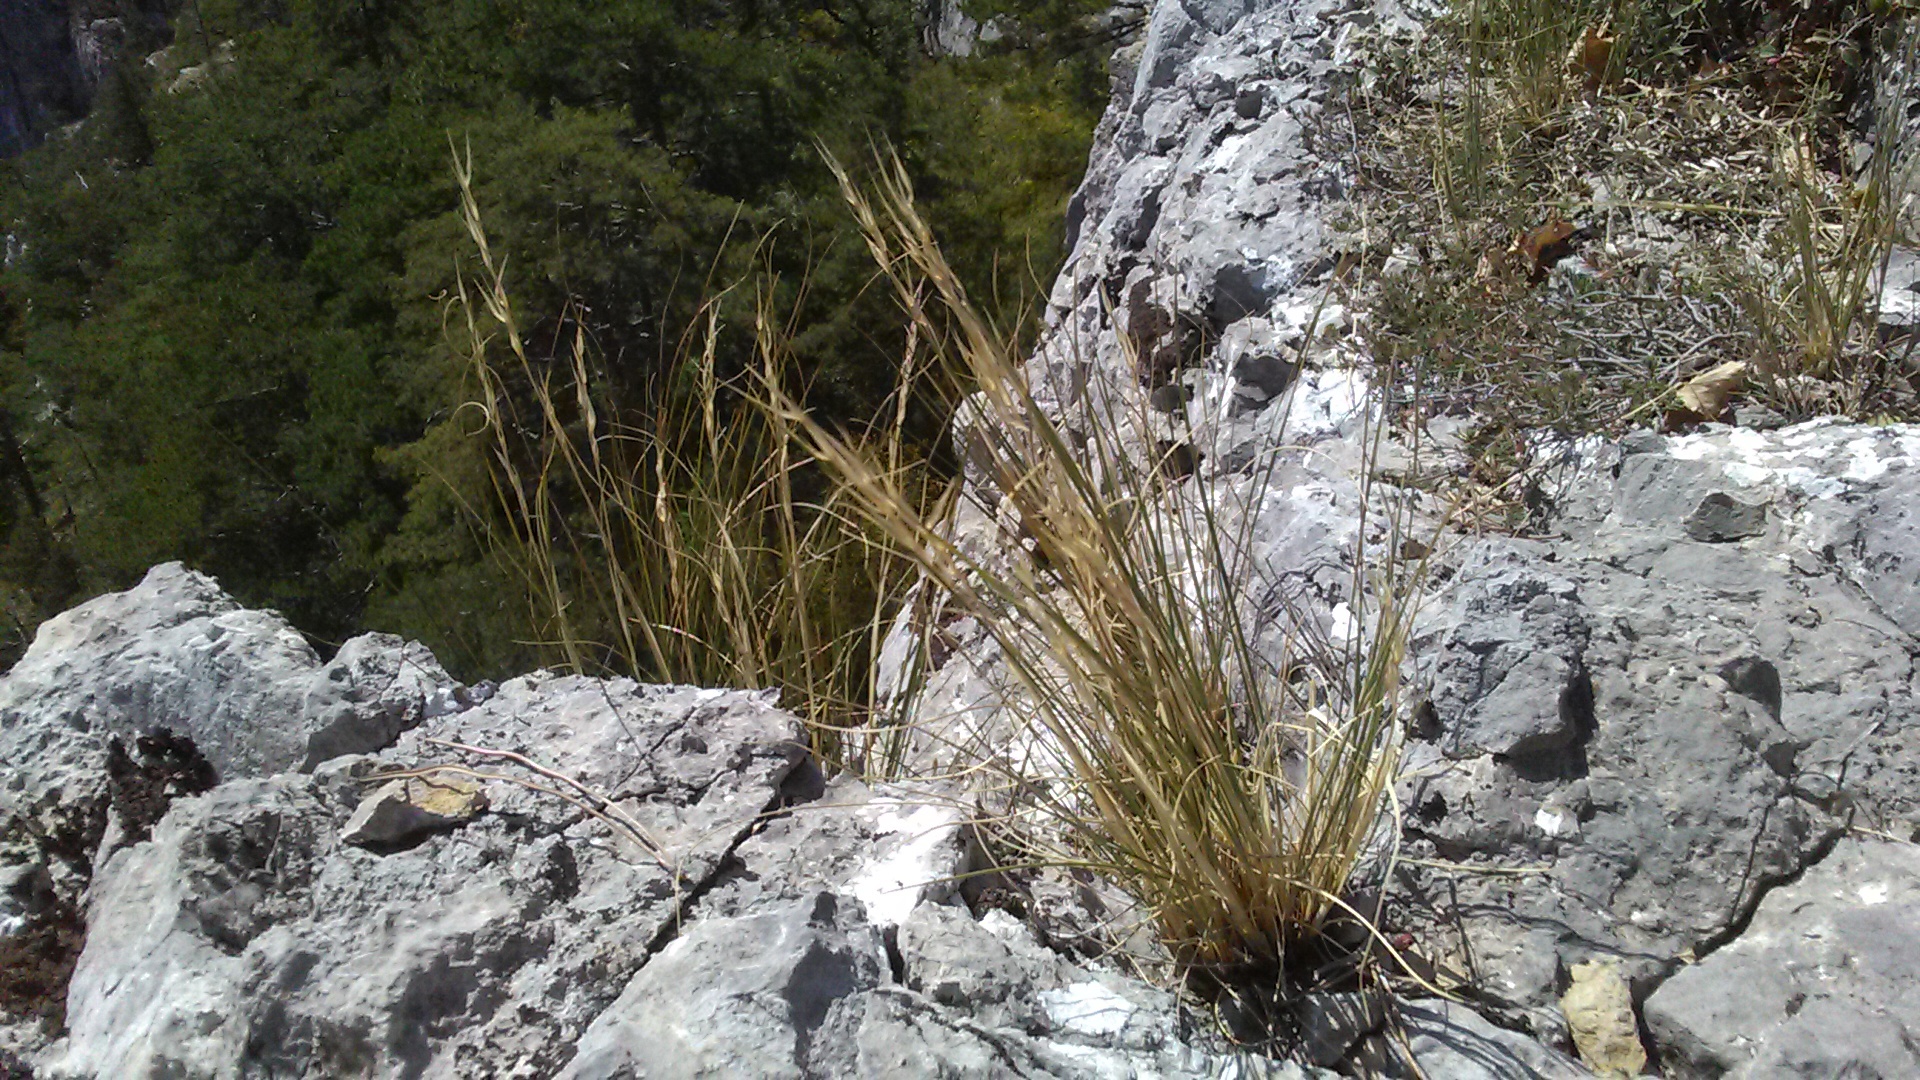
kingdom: Plantae
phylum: Tracheophyta
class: Liliopsida
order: Poales
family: Poaceae
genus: Stipa
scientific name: Stipa capillata
